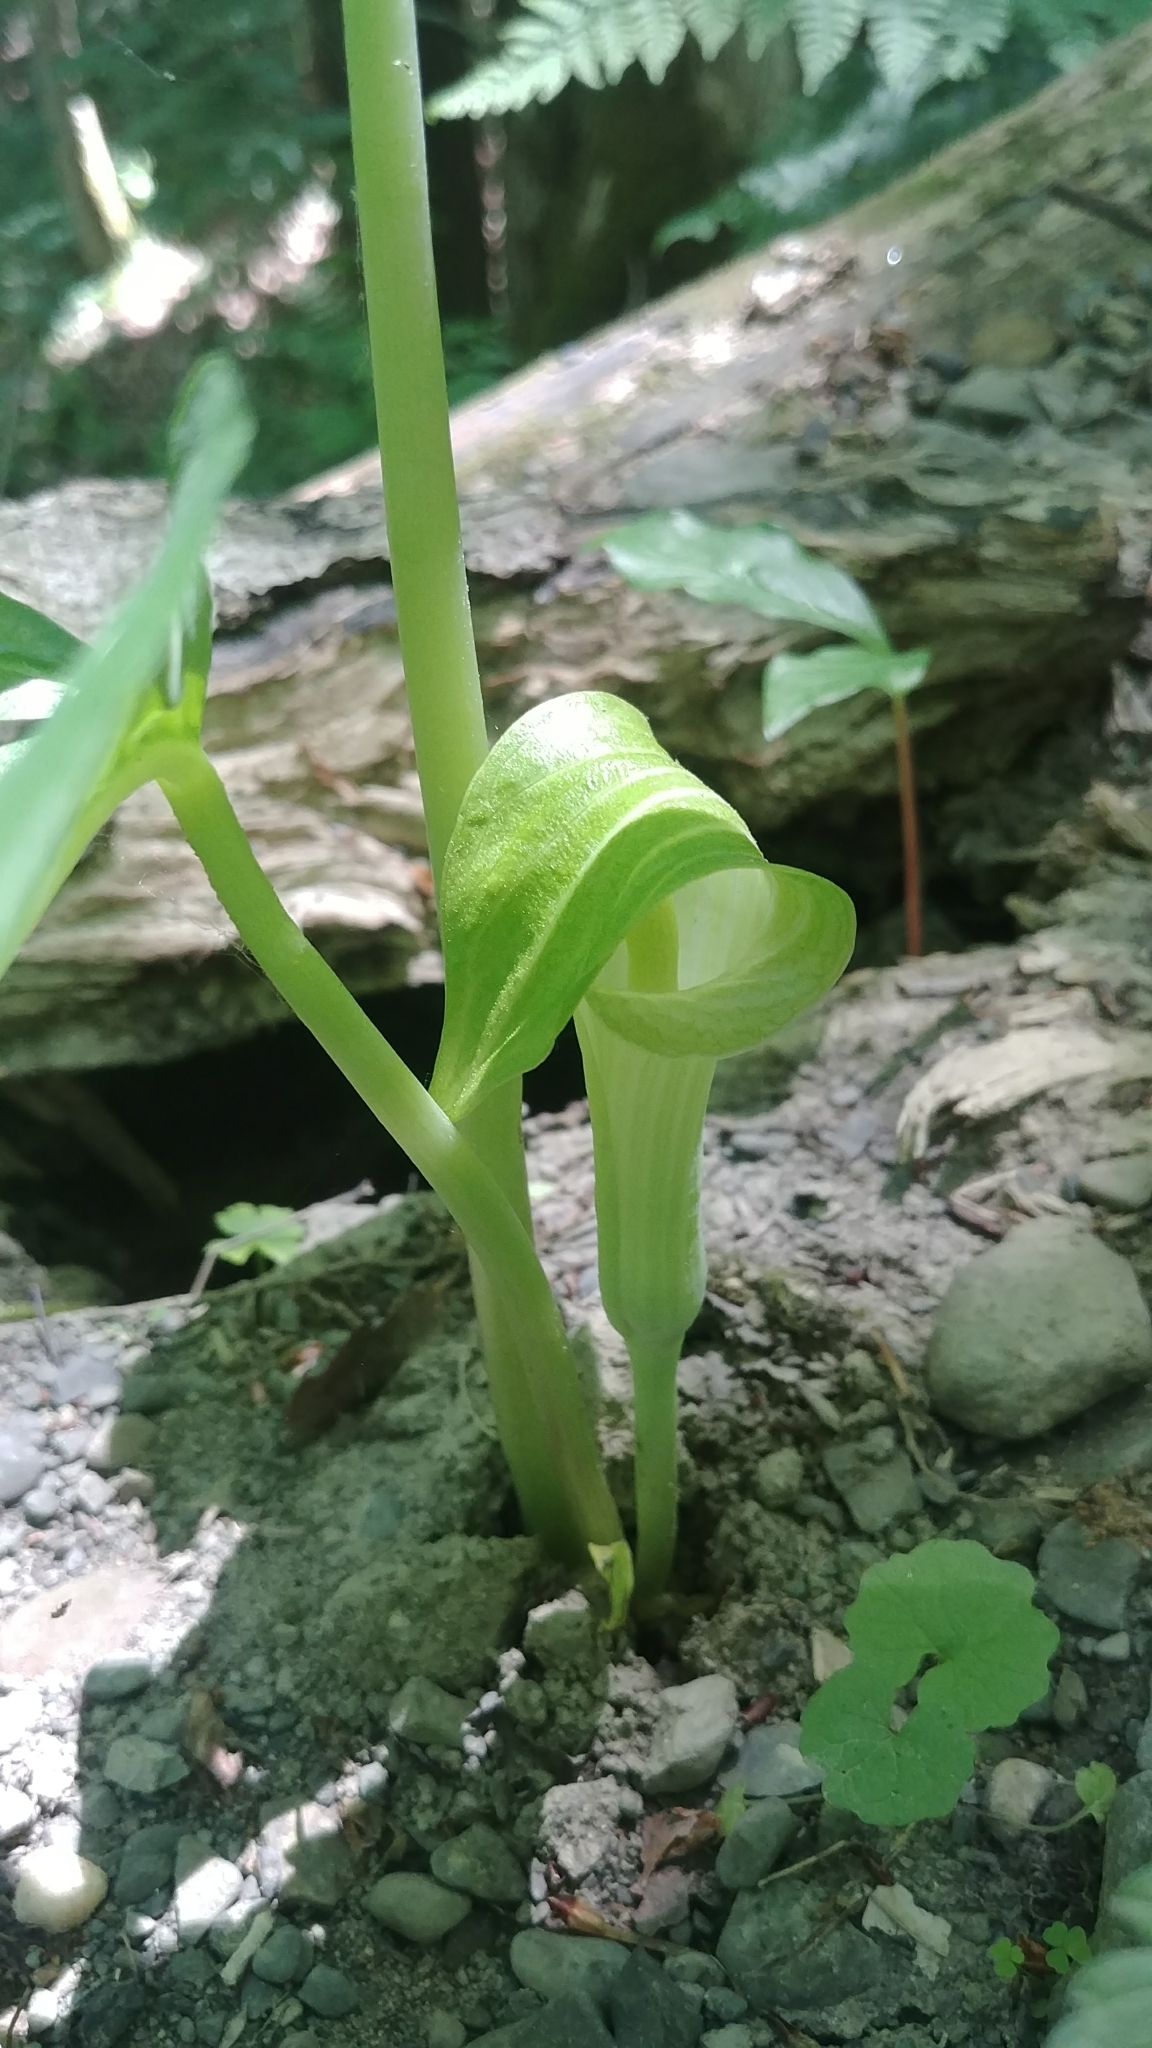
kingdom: Plantae
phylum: Tracheophyta
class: Liliopsida
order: Alismatales
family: Araceae
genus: Arisaema
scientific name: Arisaema triphyllum
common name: Jack-in-the-pulpit
